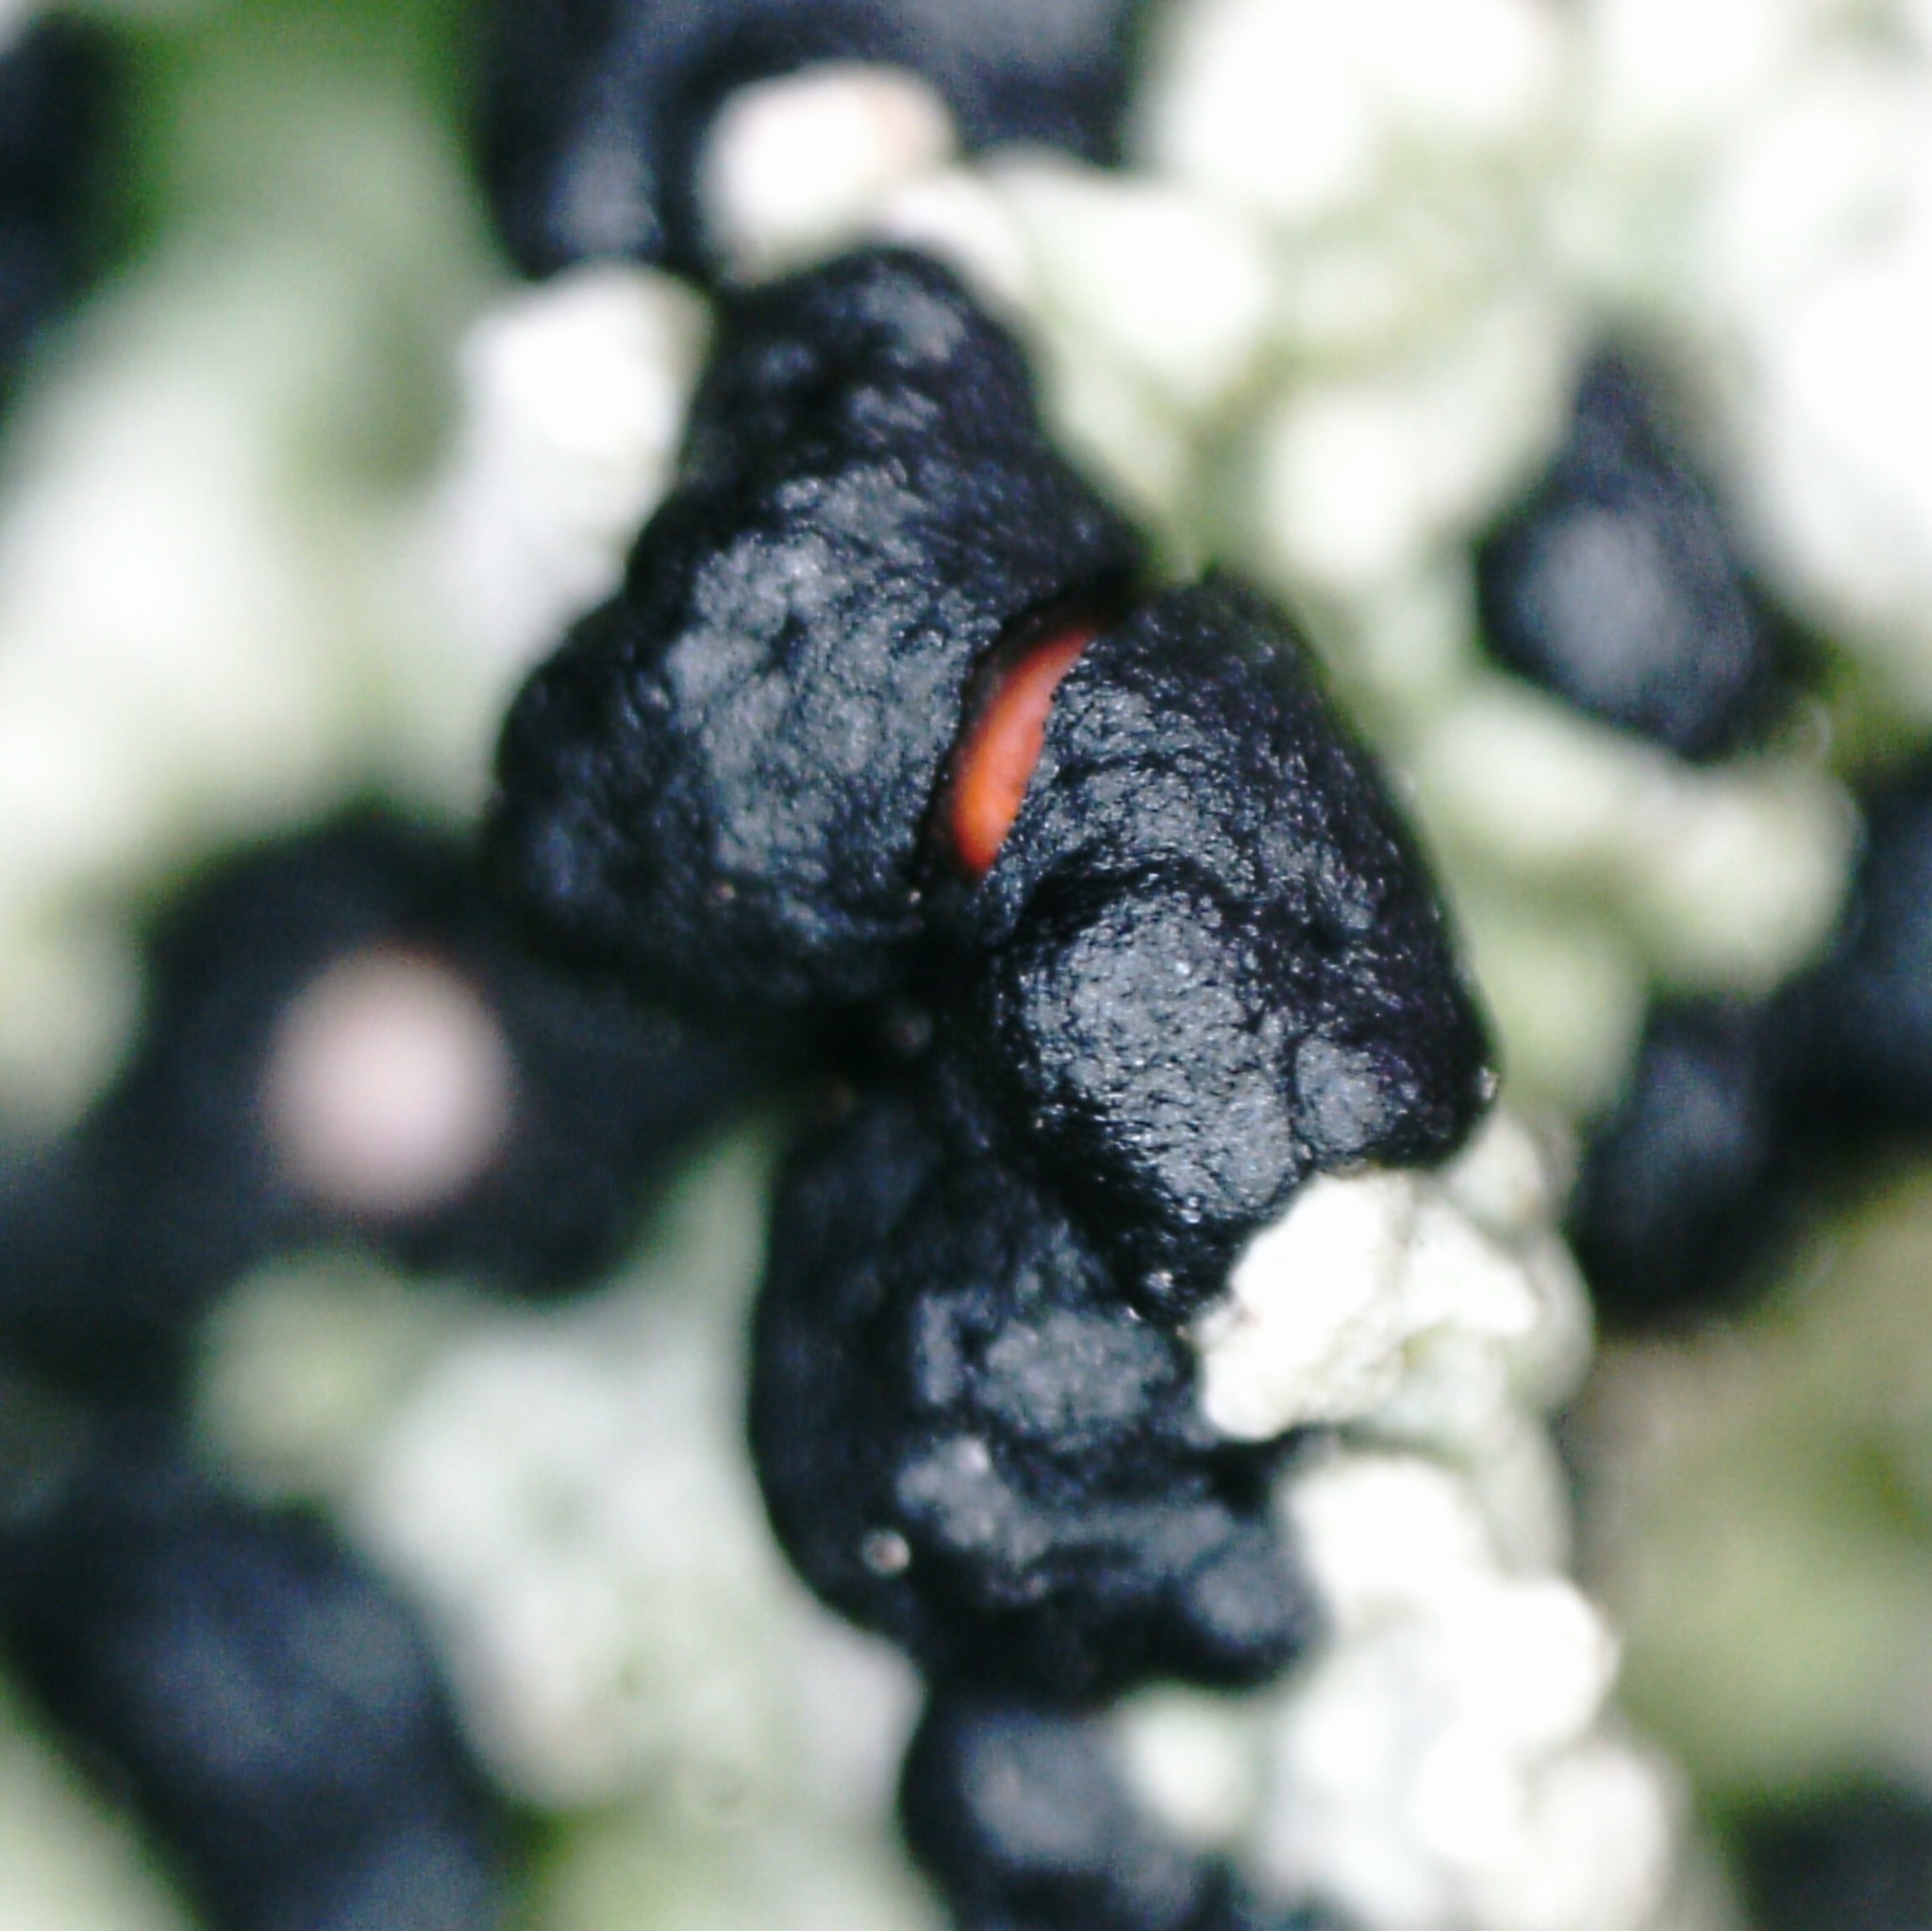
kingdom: Fungi
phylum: Ascomycota
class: Lecanoromycetes
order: Lecanorales
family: Tephromelataceae
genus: Mycoblastus
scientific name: Mycoblastus sanguinarius
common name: Bloody-heart lichen
